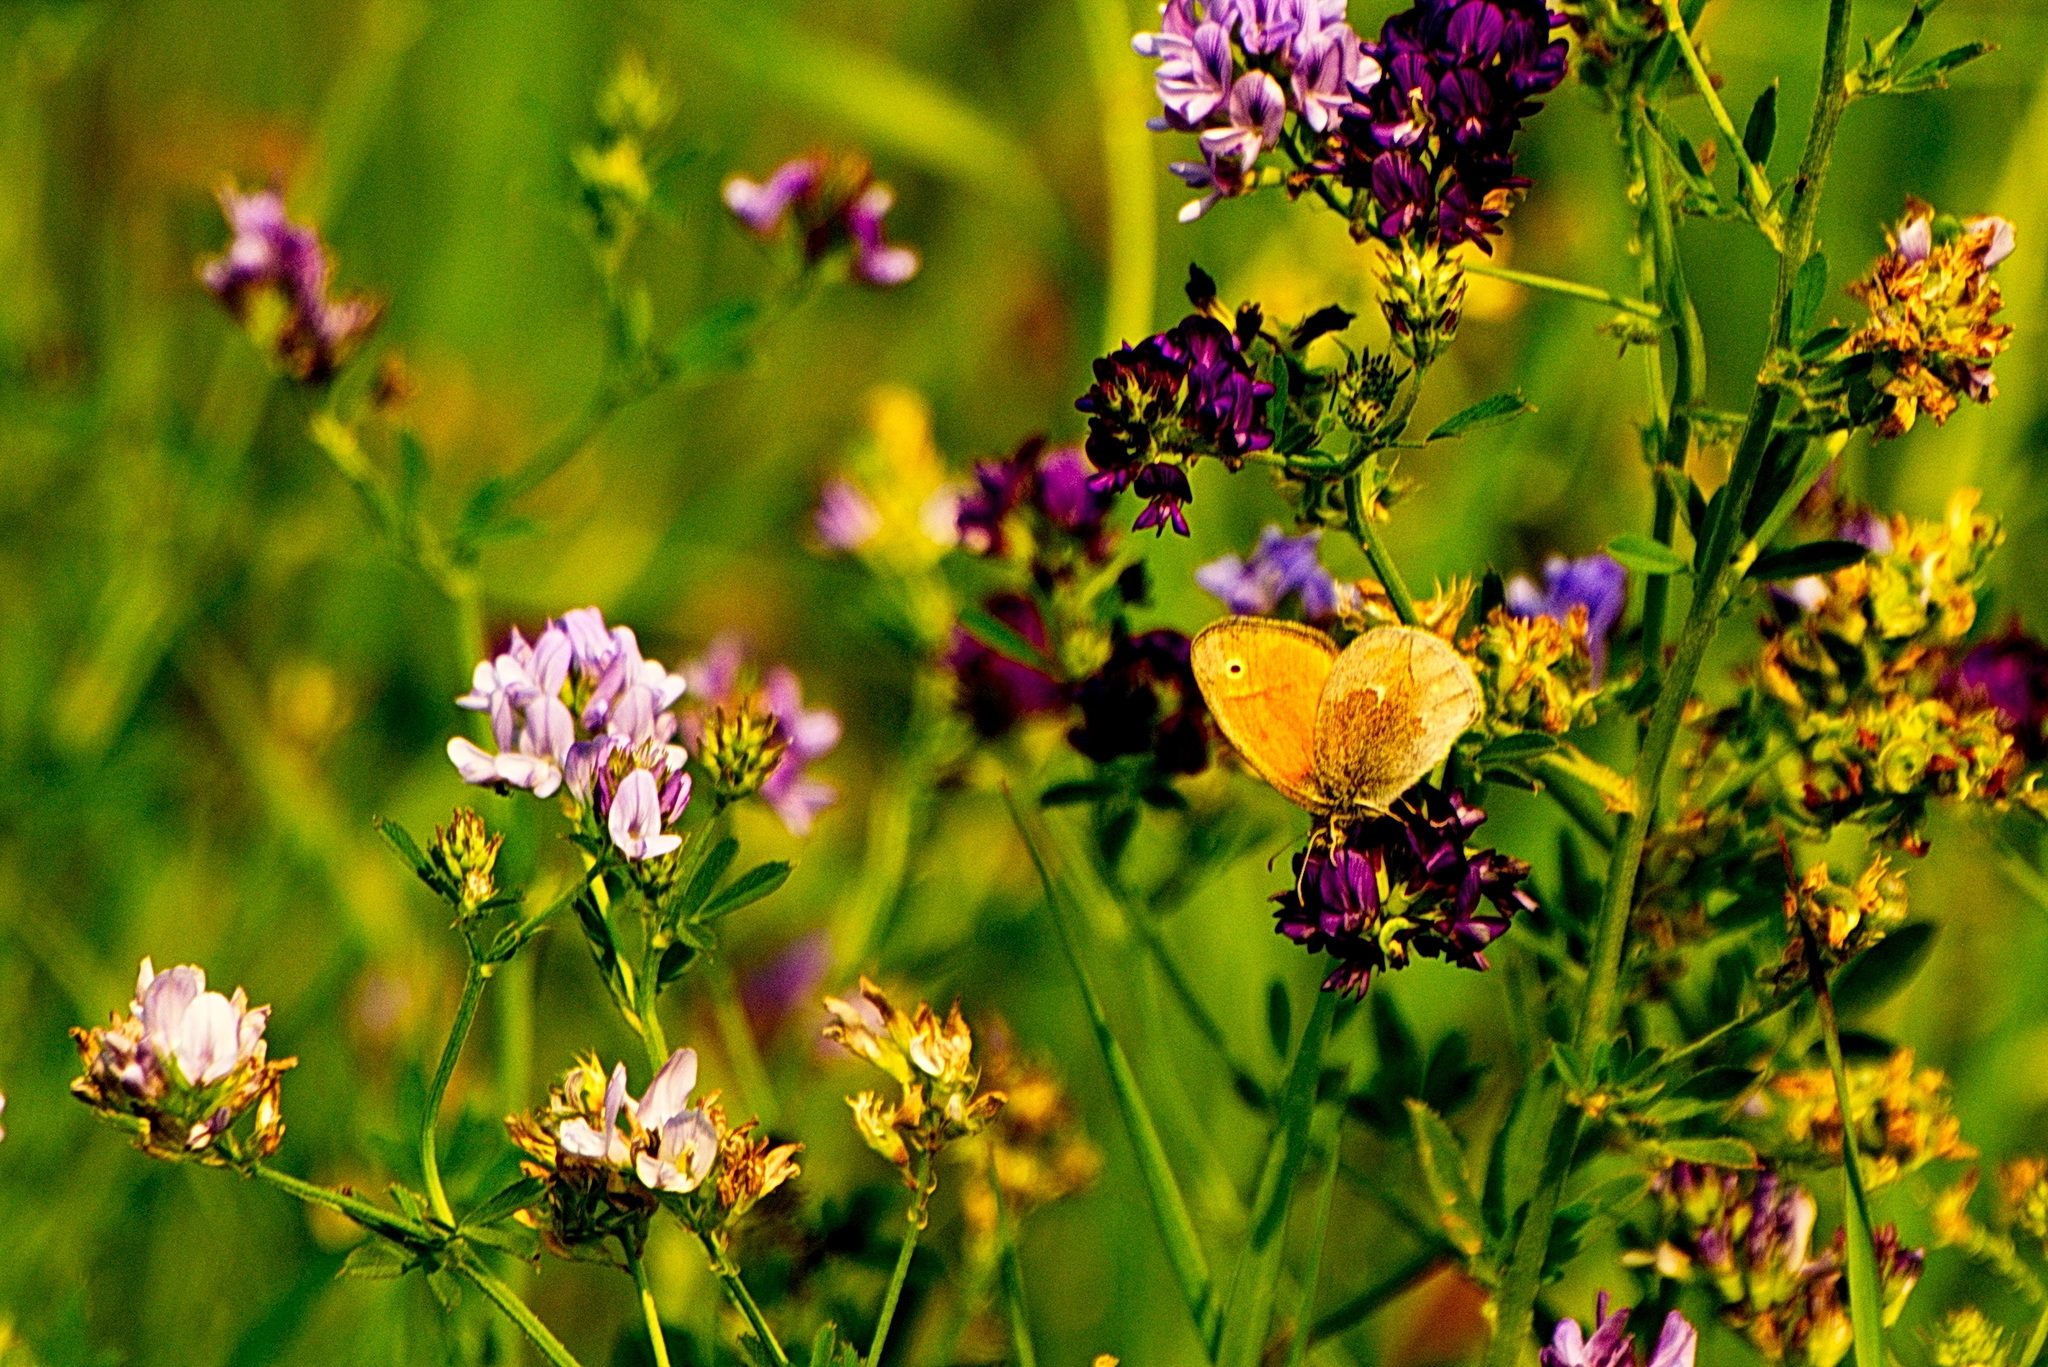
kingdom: Animalia
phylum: Arthropoda
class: Insecta
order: Lepidoptera
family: Nymphalidae
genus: Coenonympha
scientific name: Coenonympha california
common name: Common ringlet
